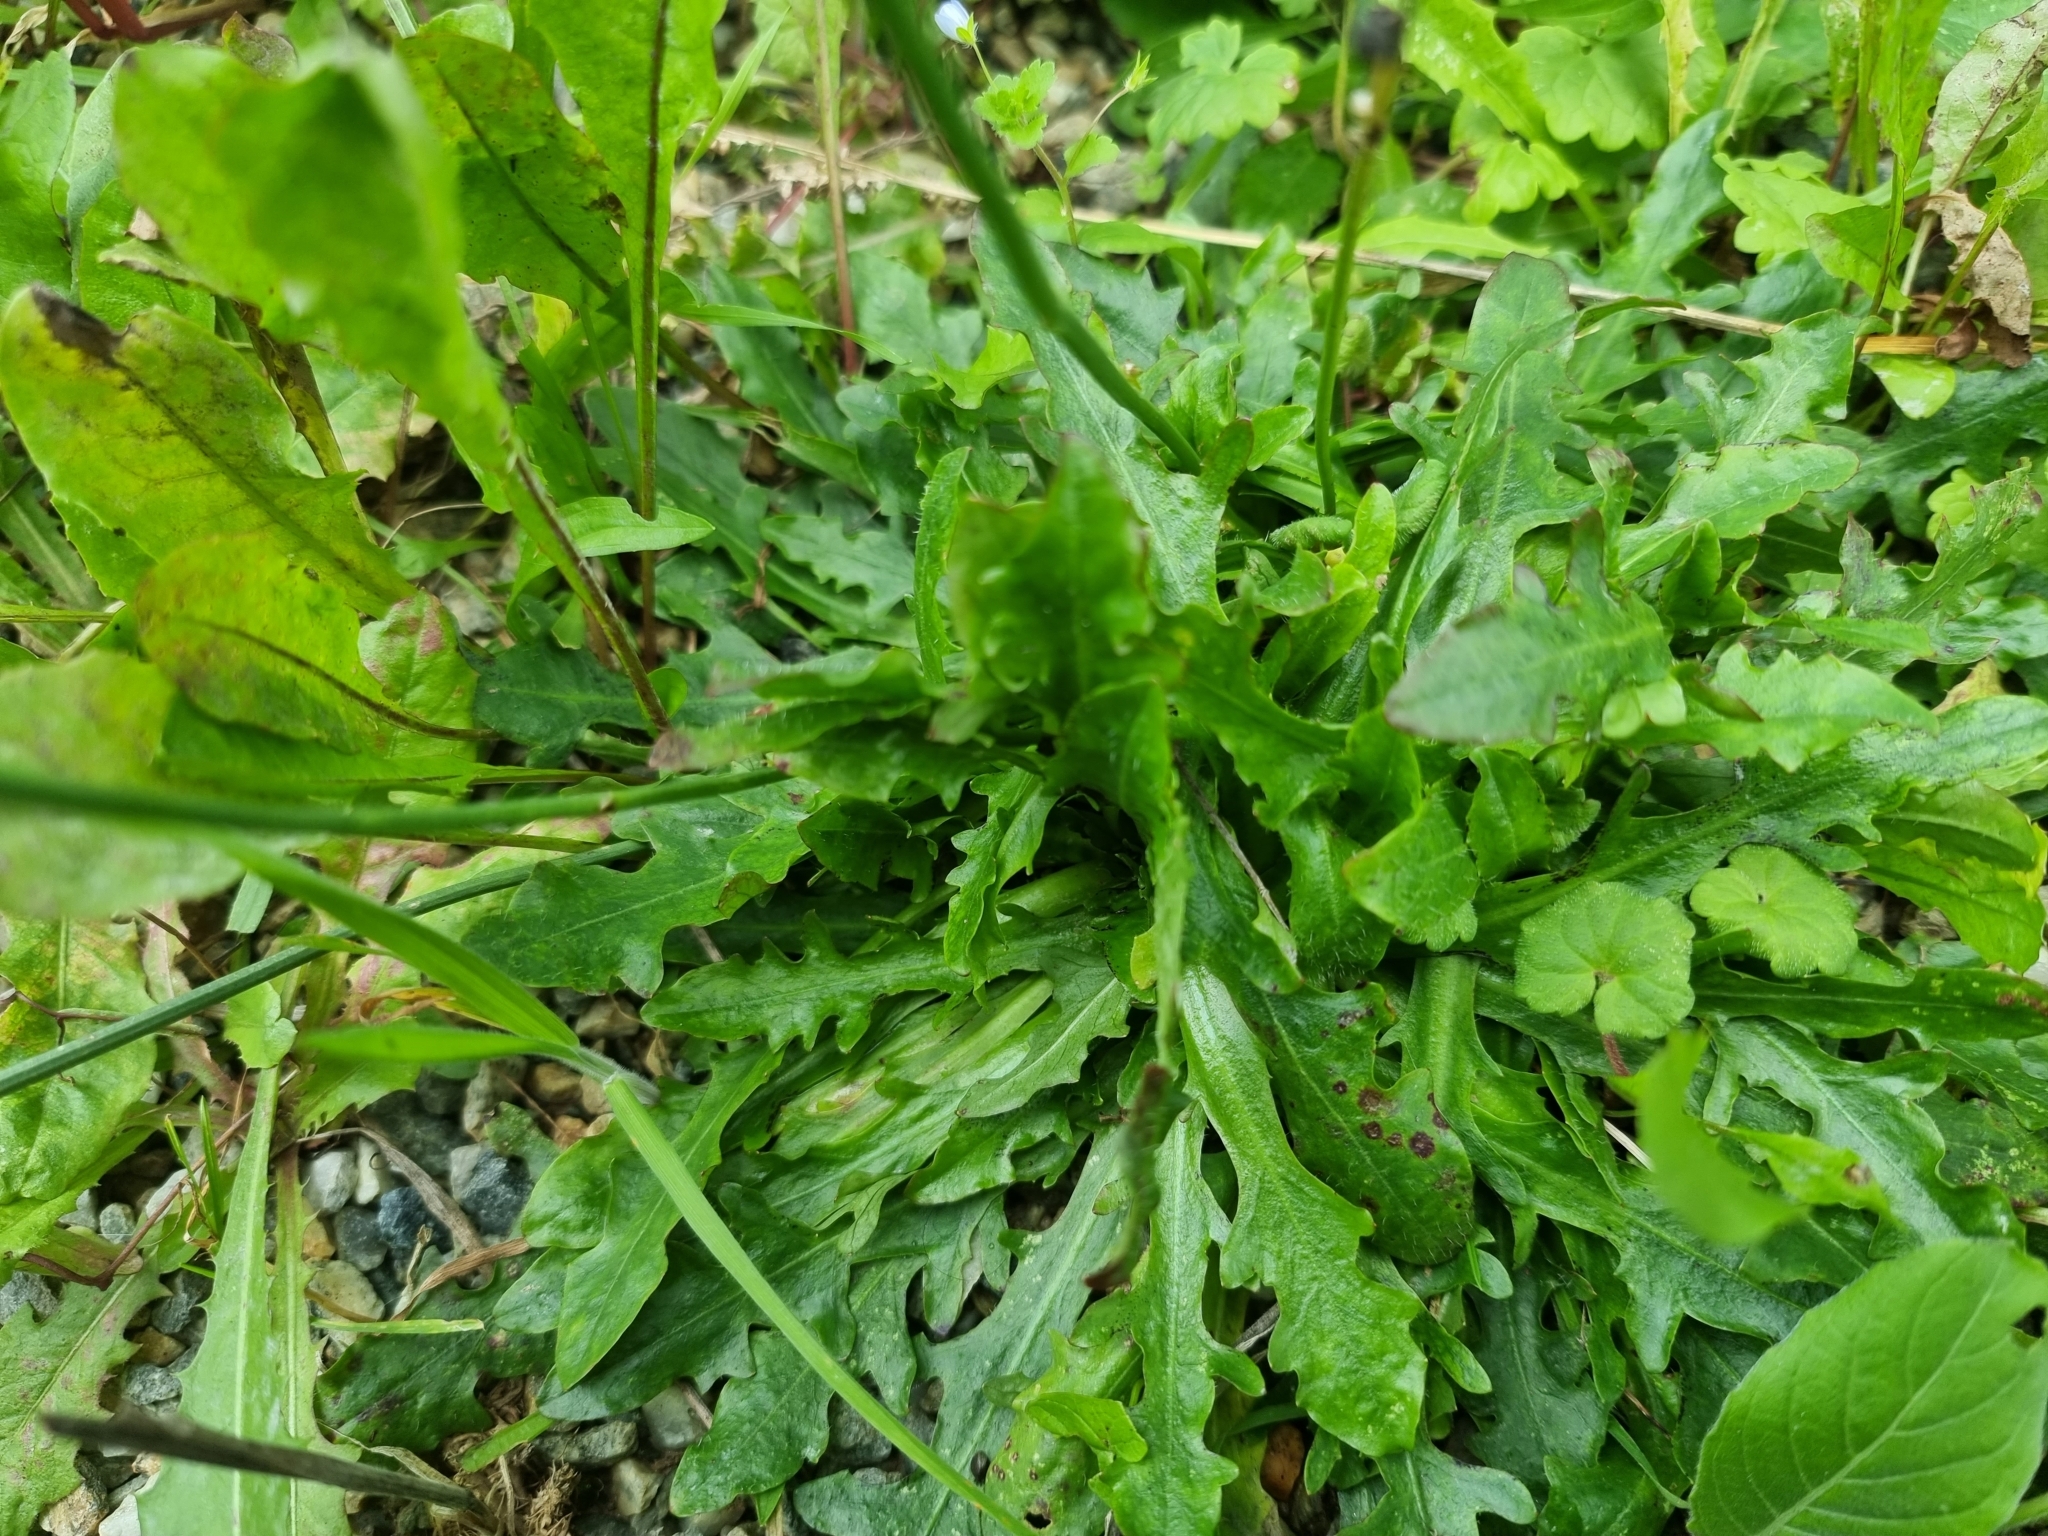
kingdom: Plantae
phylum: Tracheophyta
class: Magnoliopsida
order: Asterales
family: Asteraceae
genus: Hypochaeris
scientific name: Hypochaeris radicata
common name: Flatweed
